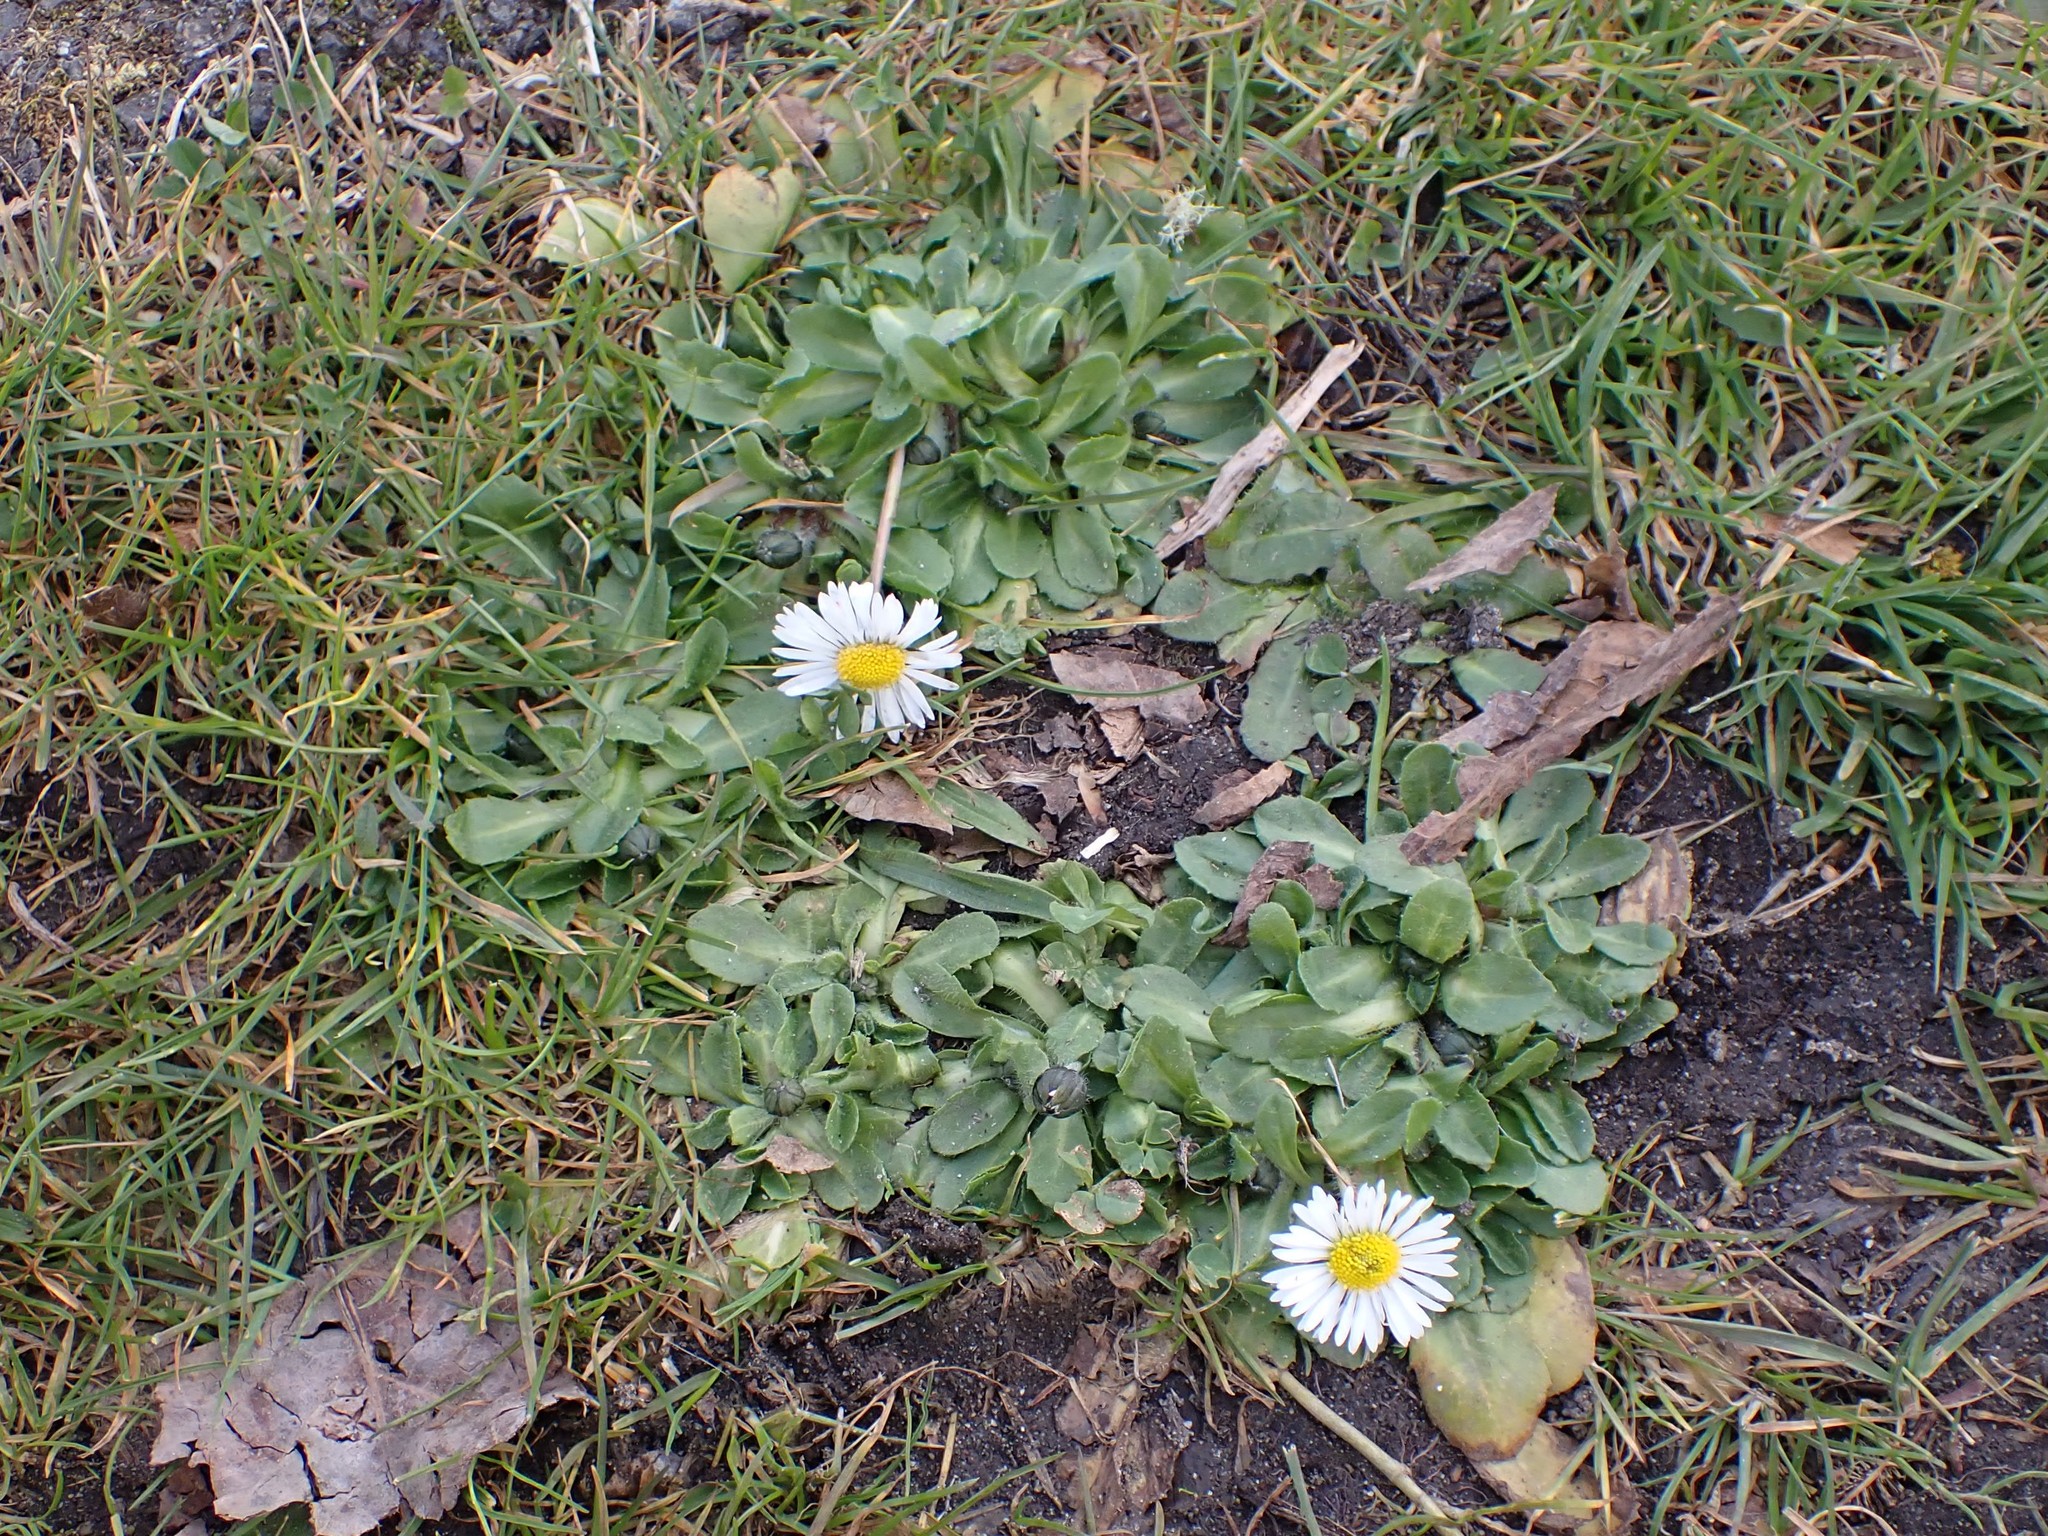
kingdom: Plantae
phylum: Tracheophyta
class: Magnoliopsida
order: Asterales
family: Asteraceae
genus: Bellis
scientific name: Bellis perennis
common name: Lawndaisy
